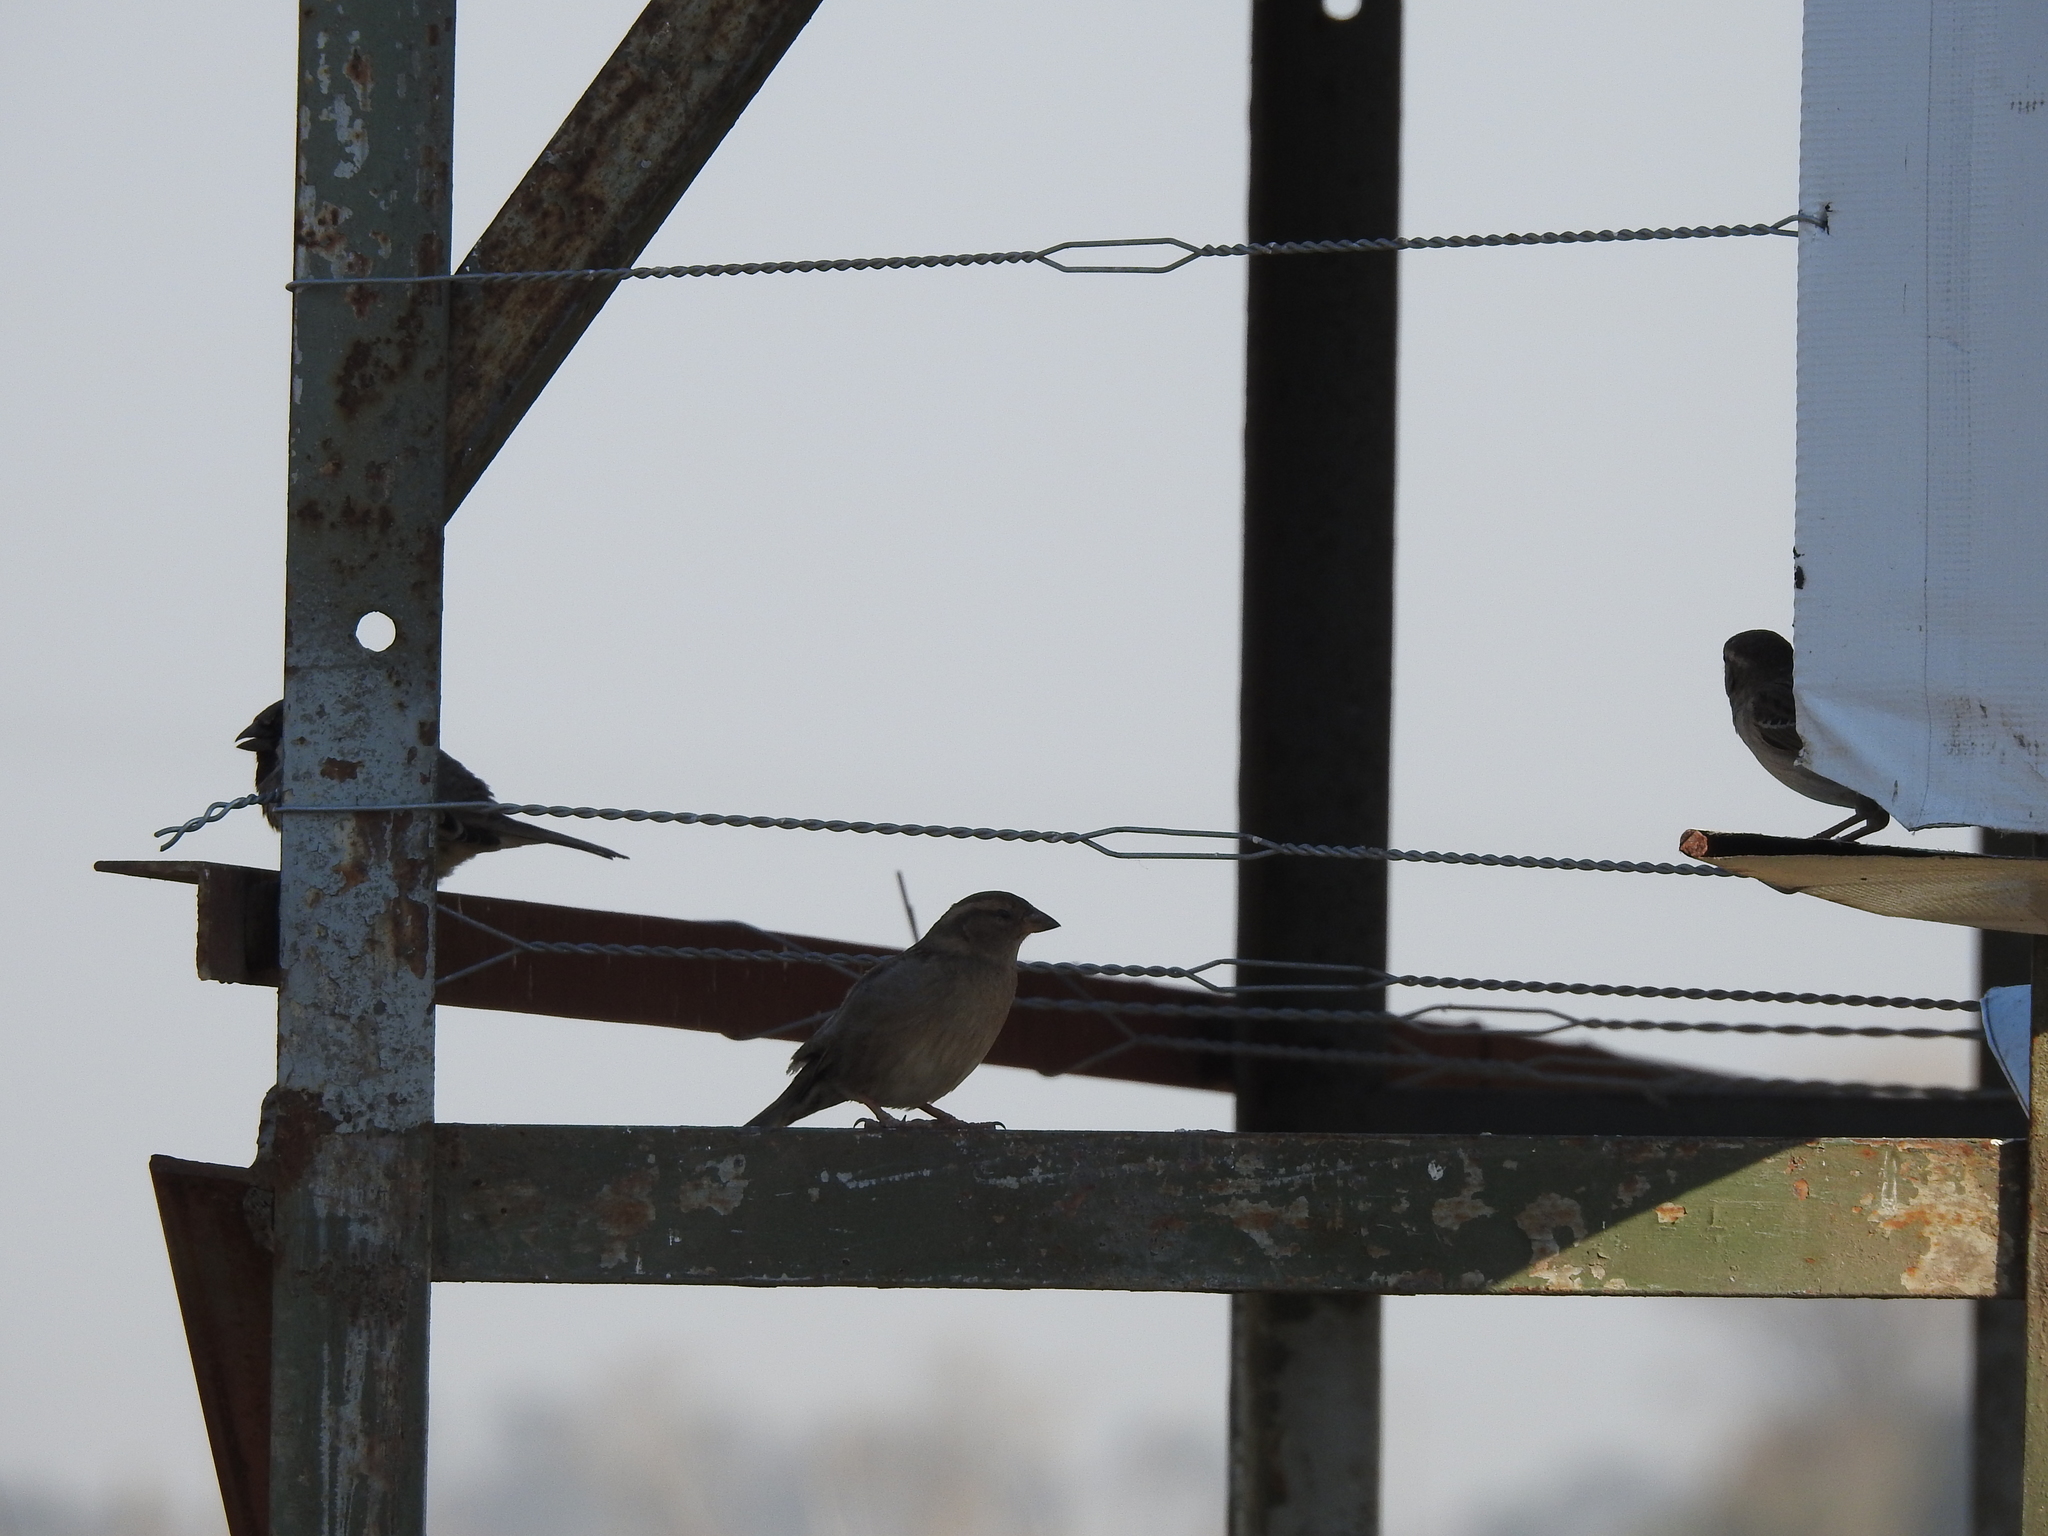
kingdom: Animalia
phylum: Chordata
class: Aves
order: Passeriformes
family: Passeridae
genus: Passer
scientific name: Passer domesticus
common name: House sparrow
